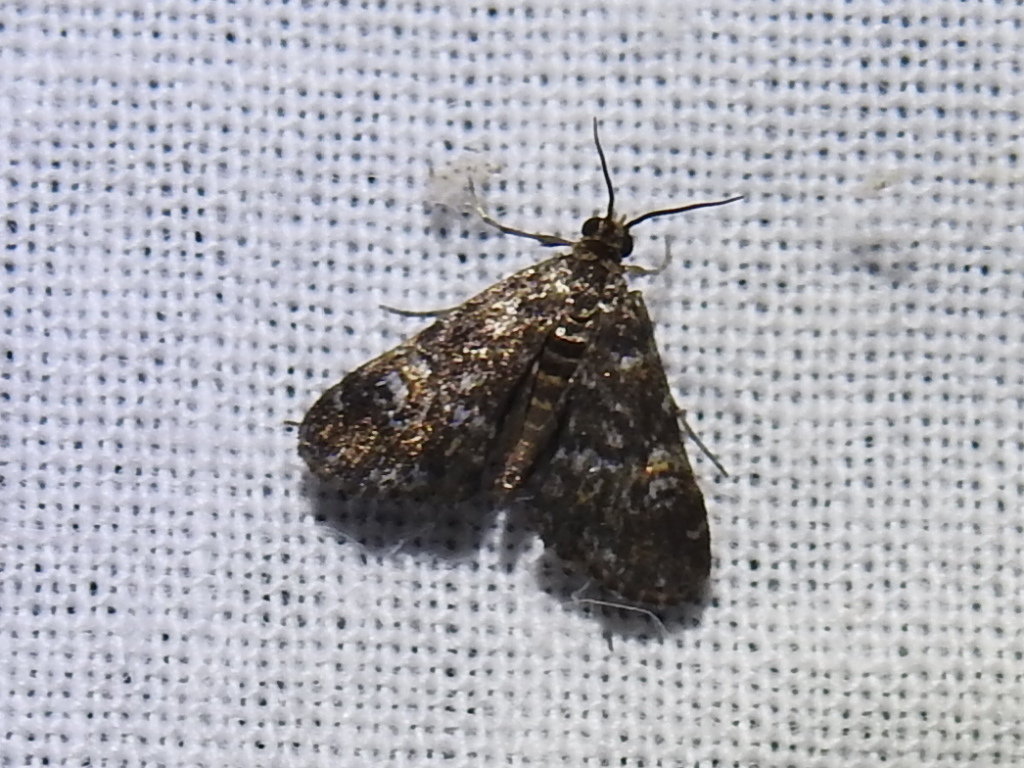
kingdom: Animalia
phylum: Arthropoda
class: Insecta
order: Lepidoptera
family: Crambidae
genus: Elophila
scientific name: Elophila obliteralis
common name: Waterlily leafcutter moth
